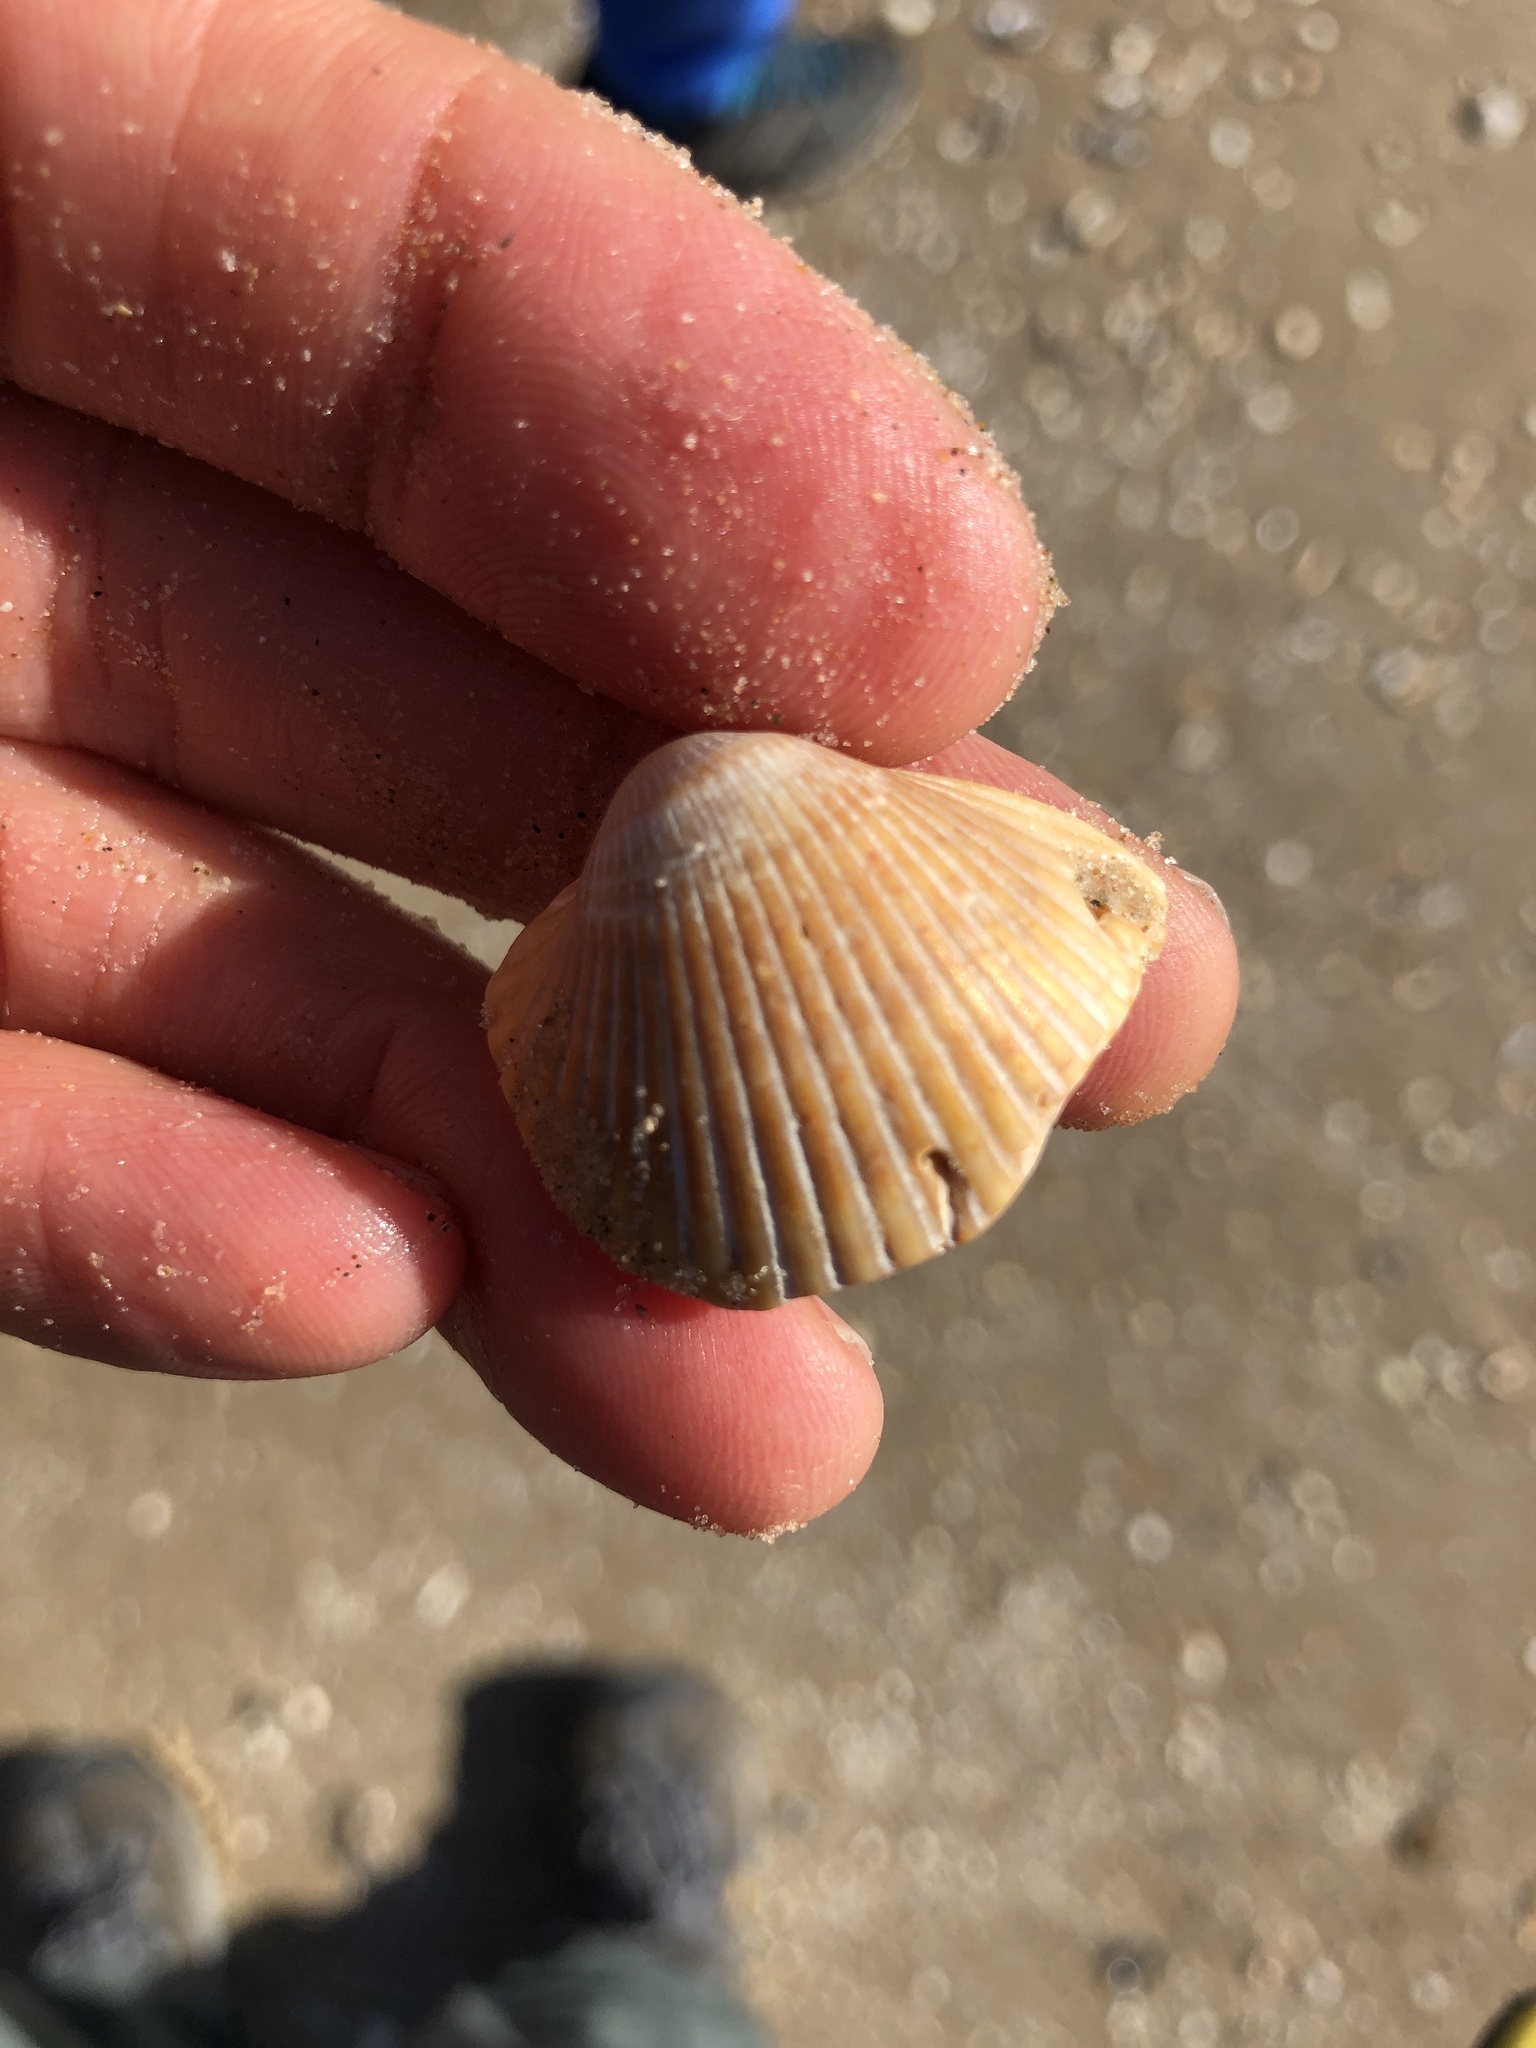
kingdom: Animalia
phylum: Mollusca
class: Bivalvia
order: Cardiida
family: Cardiidae
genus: Dinocardium
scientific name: Dinocardium robustum
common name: Atlantic giant cockle
